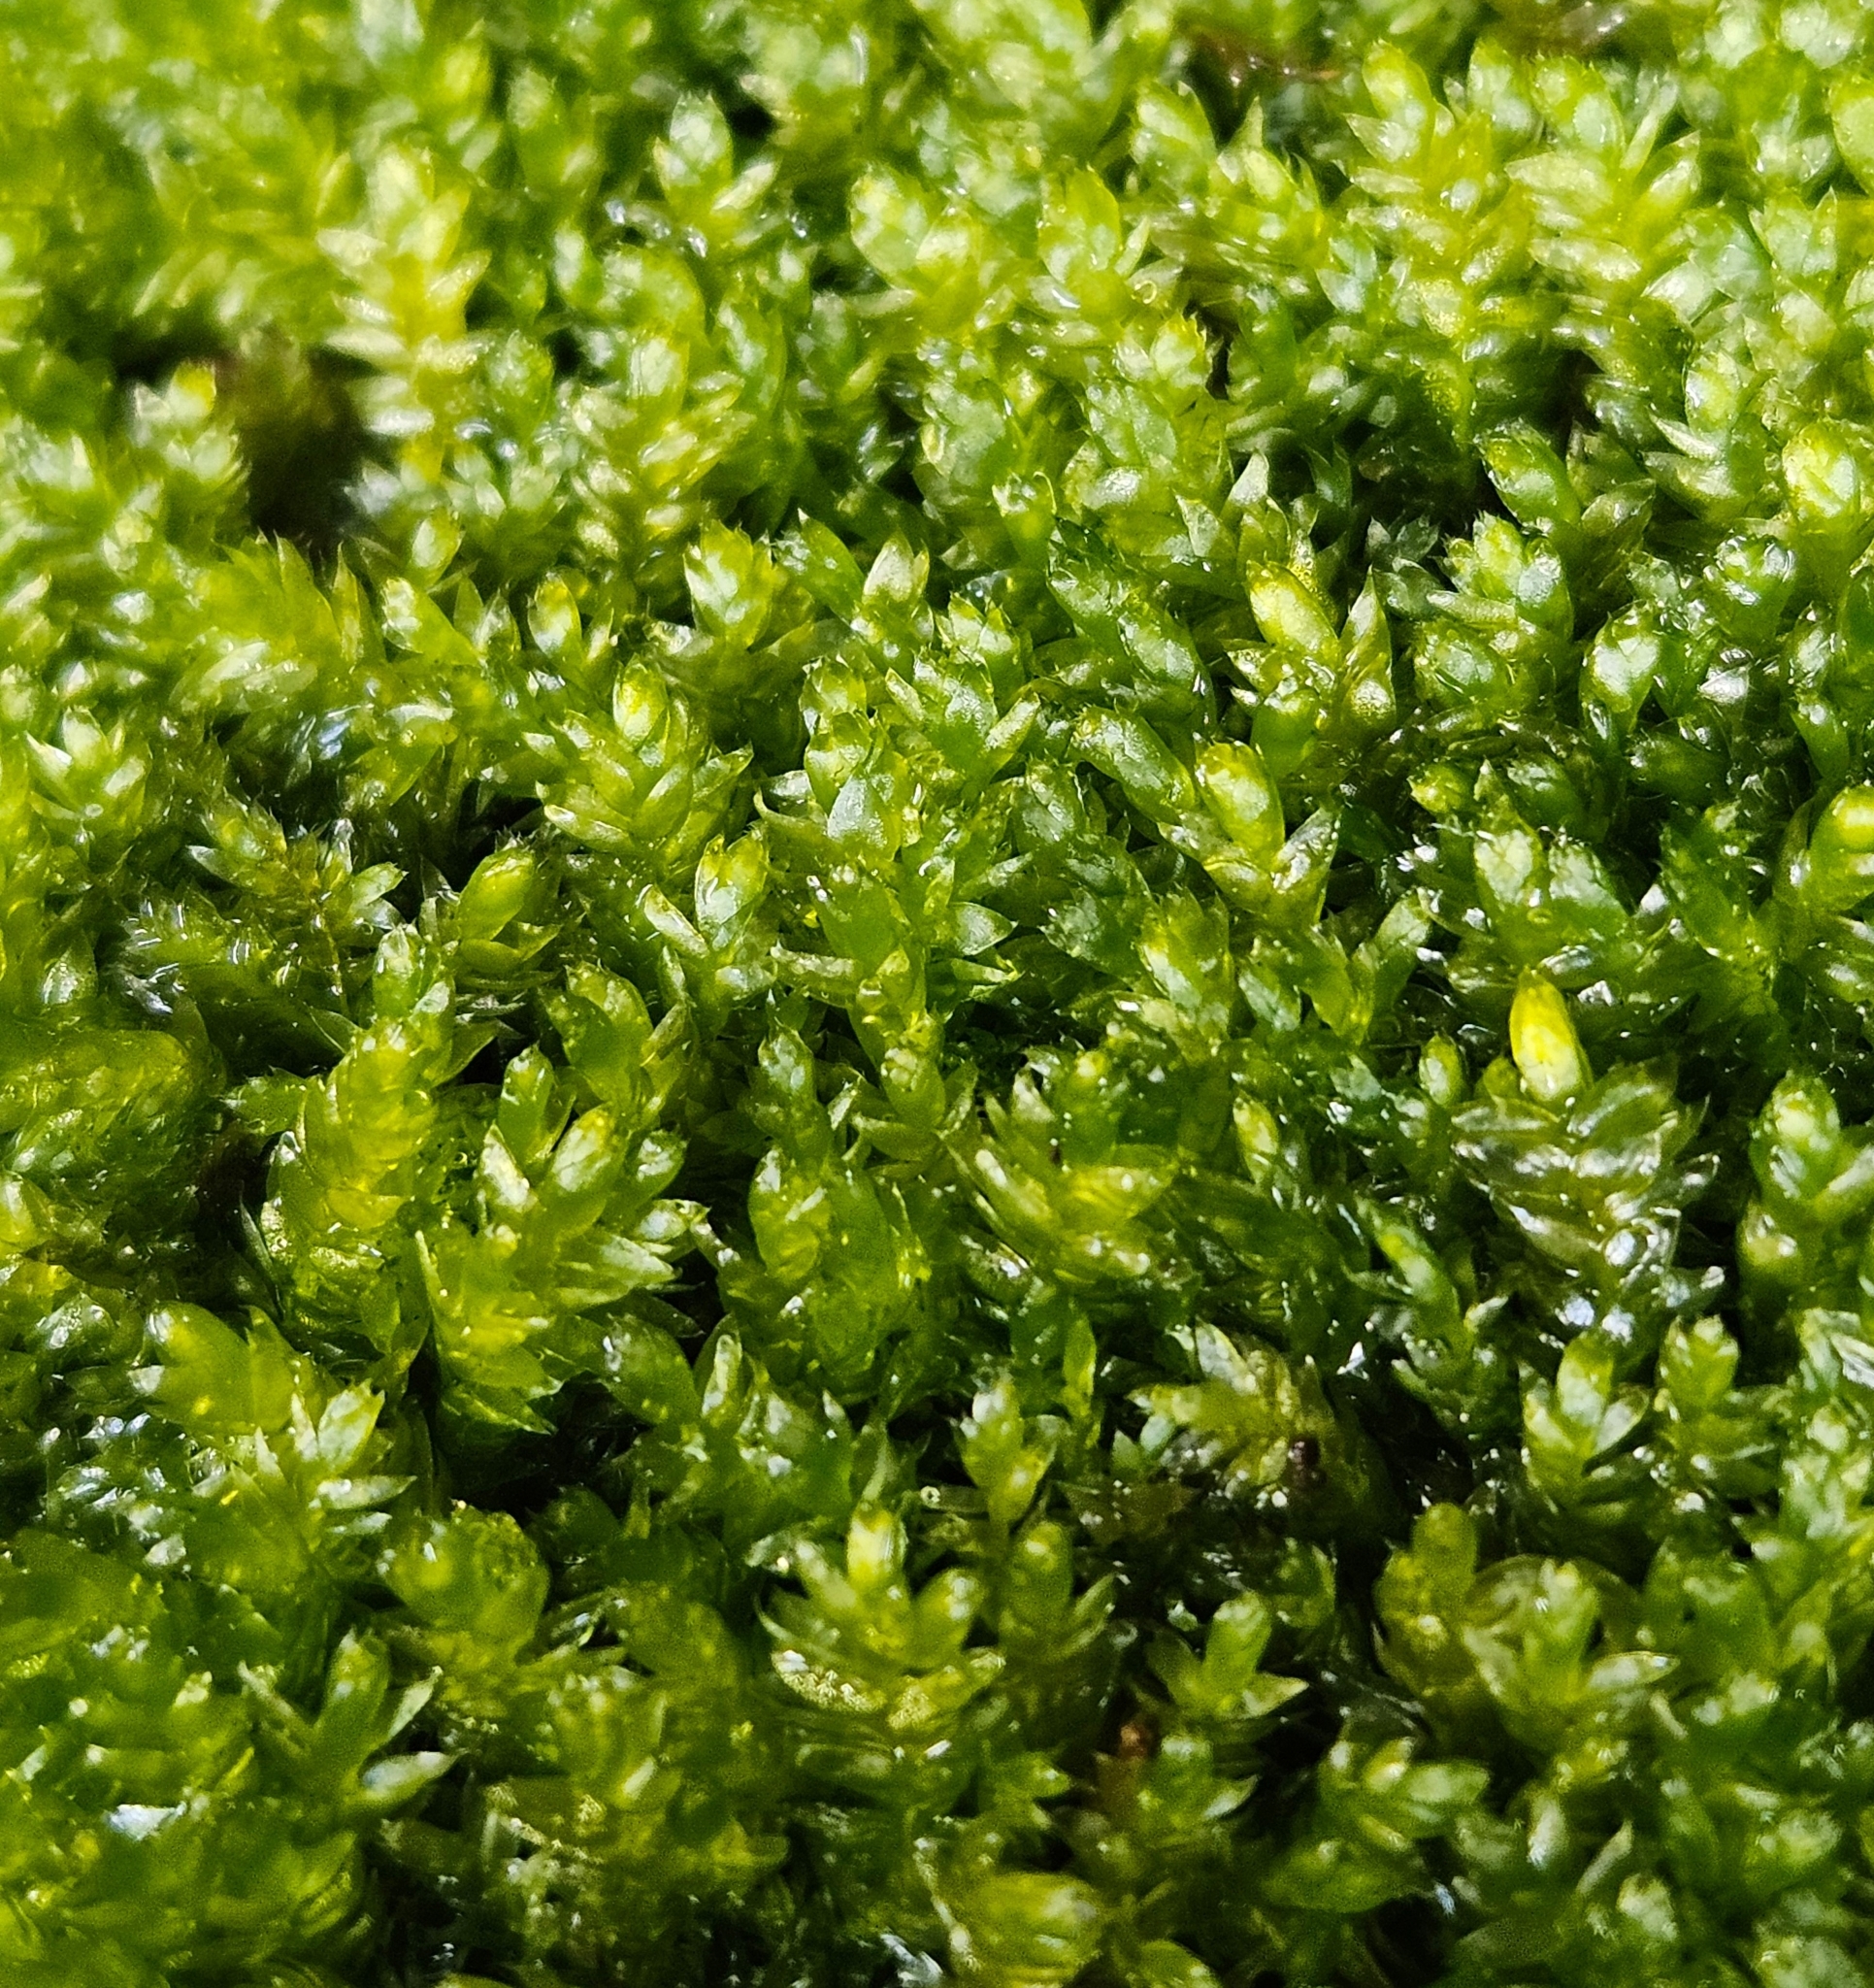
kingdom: Plantae
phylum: Bryophyta
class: Bryopsida
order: Hypnales
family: Plagiotheciaceae
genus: Plagiothecium
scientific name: Plagiothecium nemorale
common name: Woodsy silk-moss
